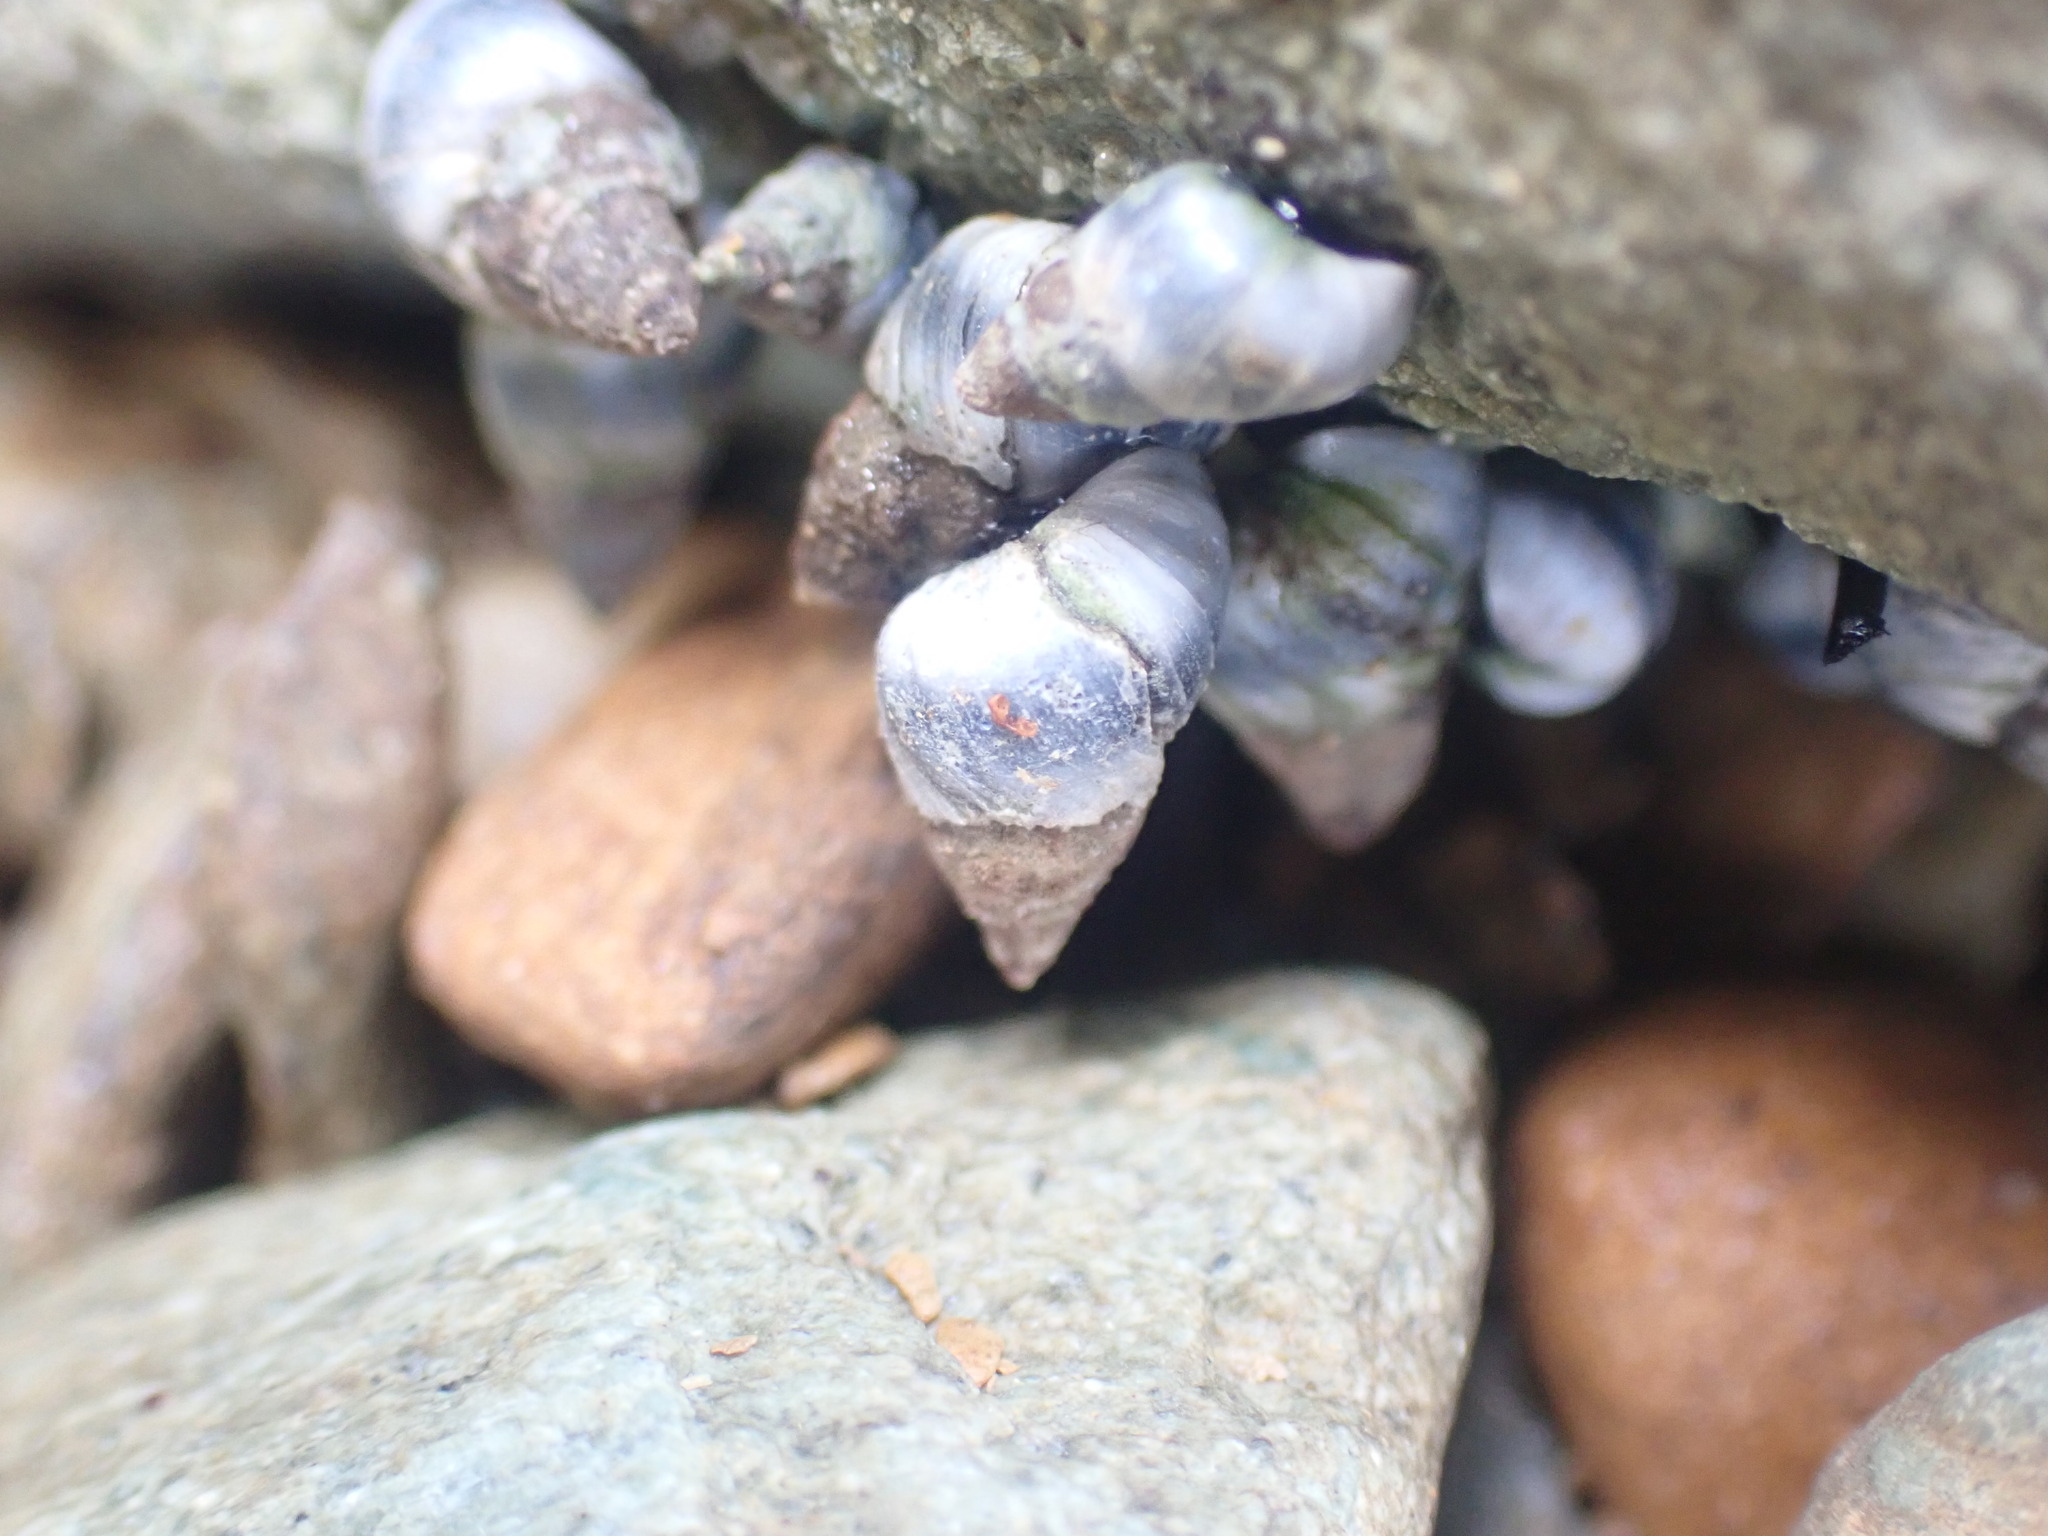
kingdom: Animalia
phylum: Mollusca
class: Gastropoda
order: Littorinimorpha
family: Littorinidae
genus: Austrolittorina
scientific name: Austrolittorina antipodum
